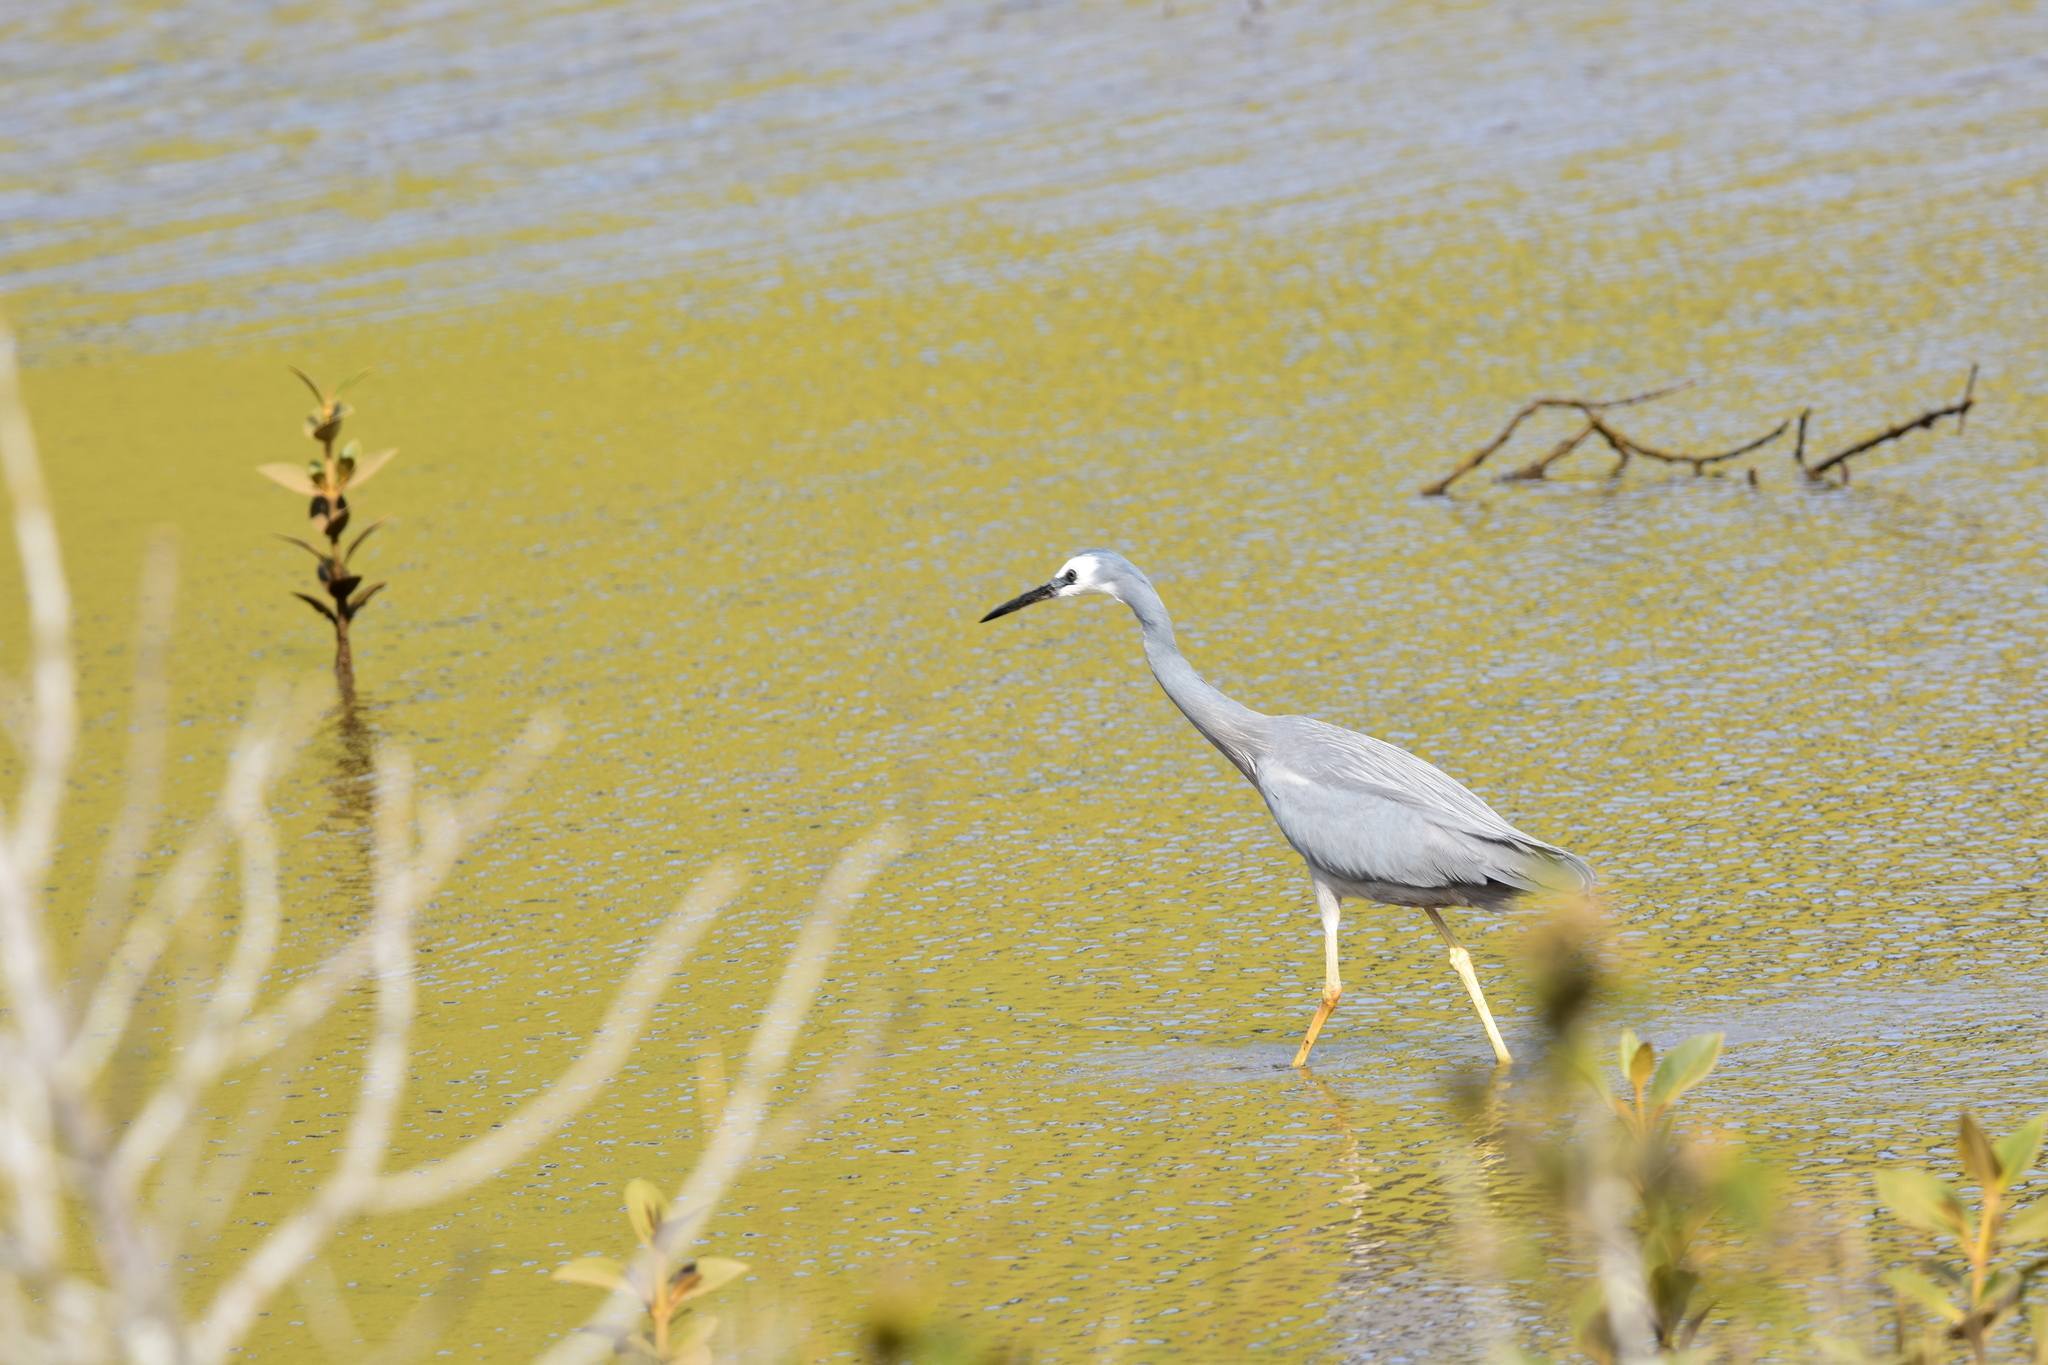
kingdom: Animalia
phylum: Chordata
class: Aves
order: Pelecaniformes
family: Ardeidae
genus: Egretta
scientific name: Egretta novaehollandiae
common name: White-faced heron
